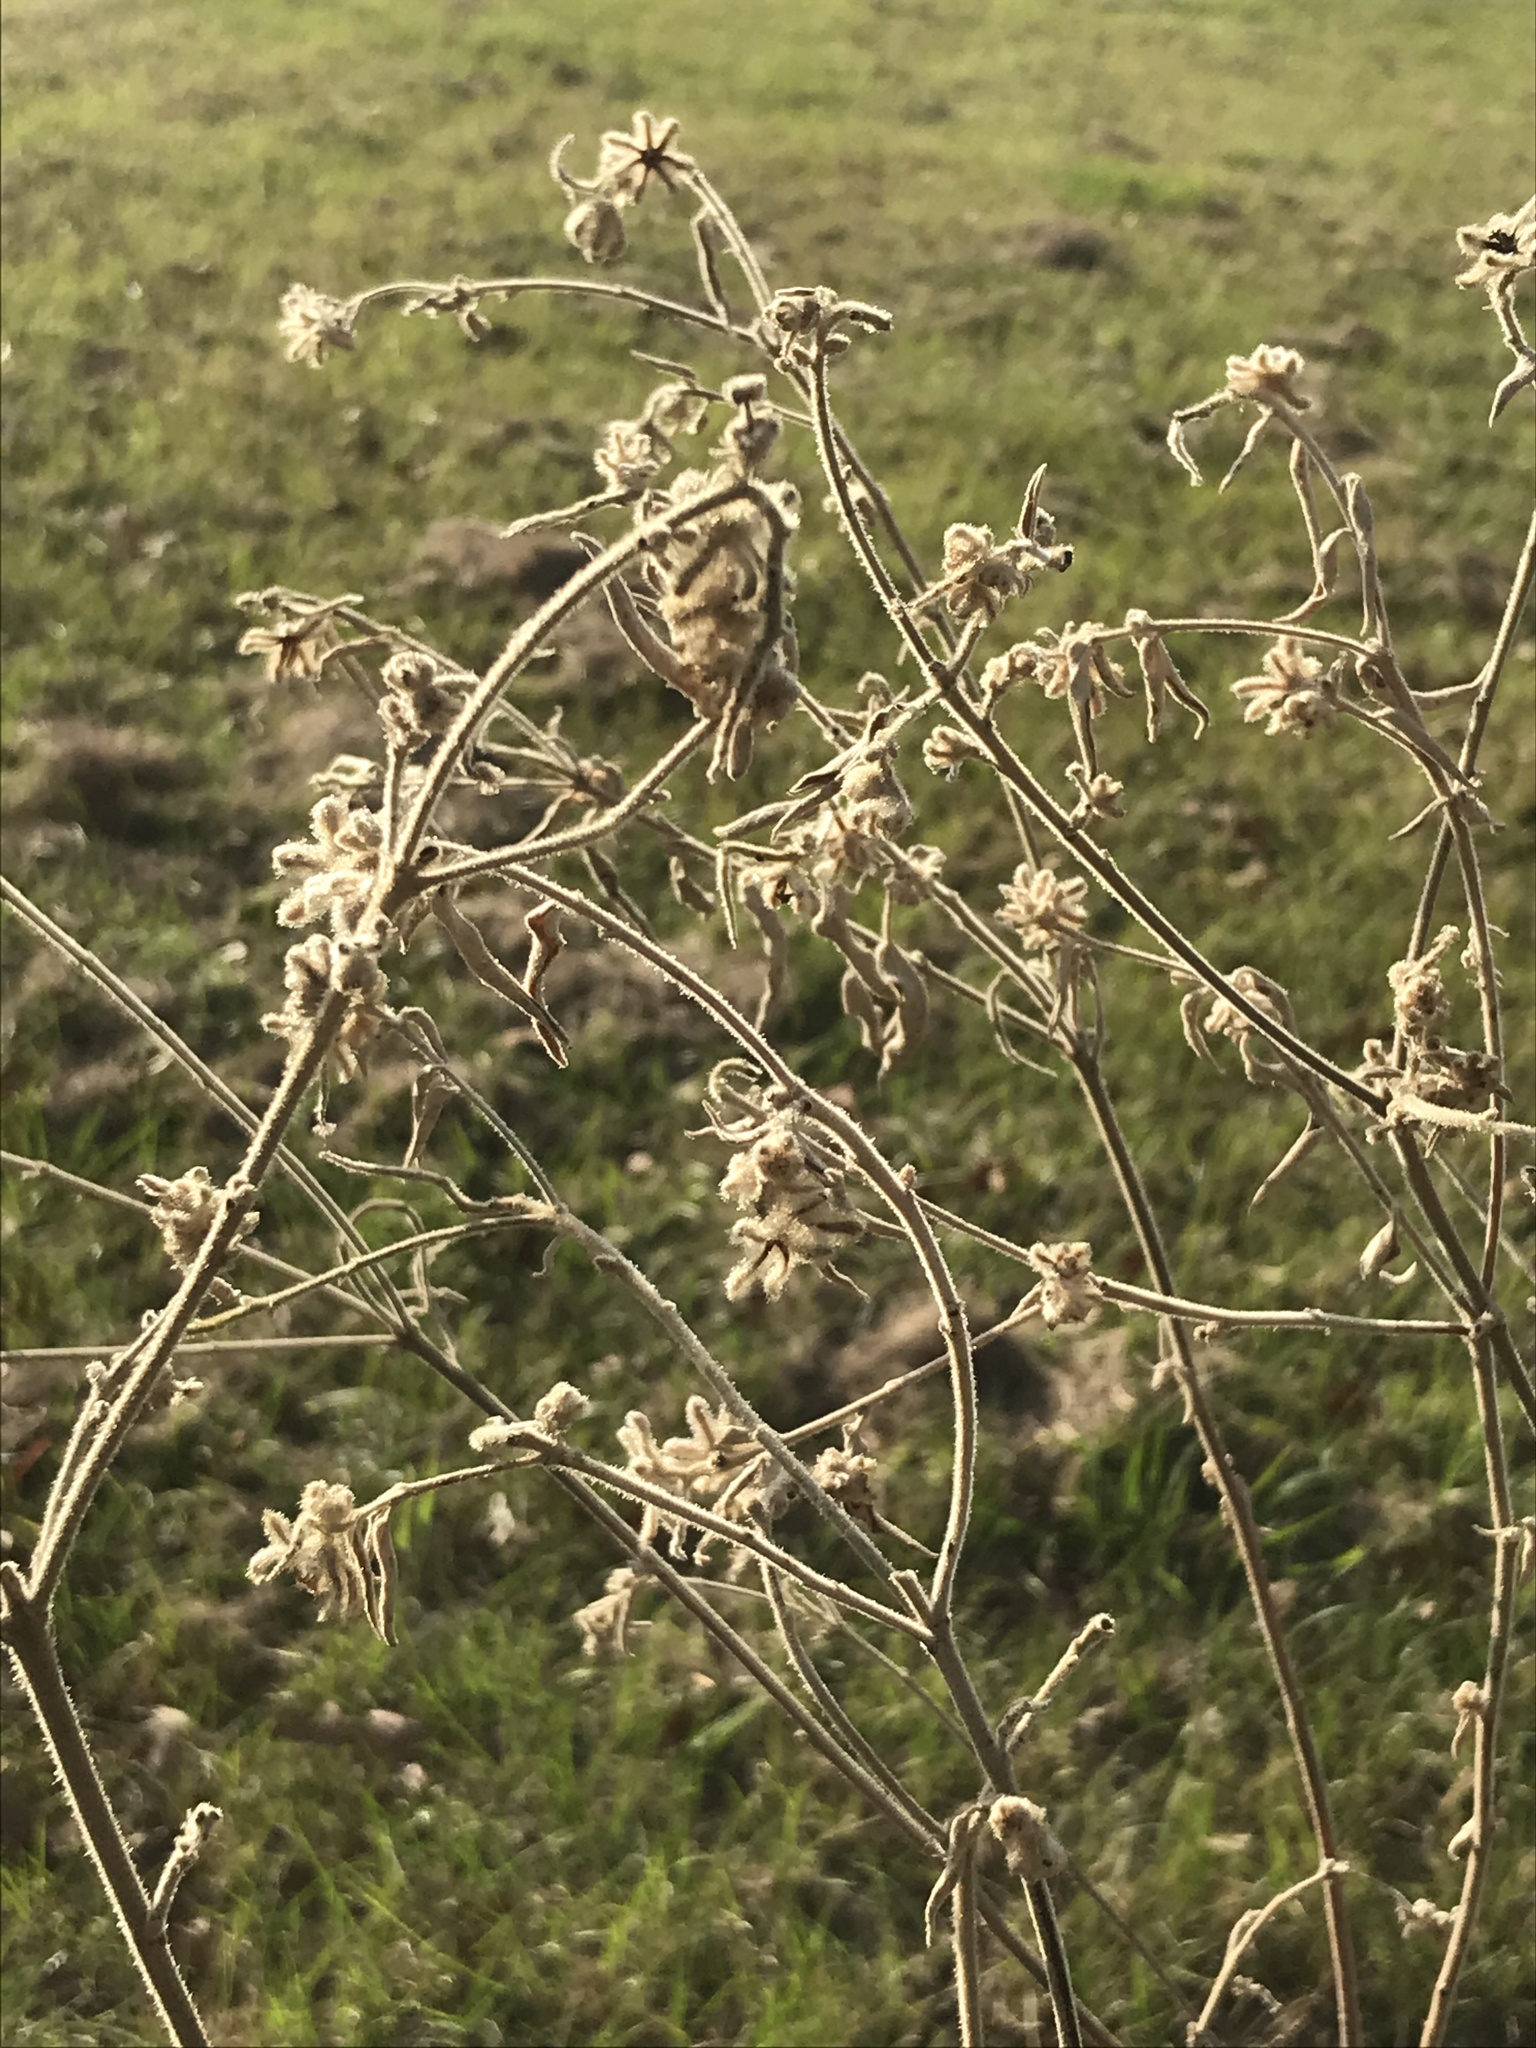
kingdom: Plantae
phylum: Tracheophyta
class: Magnoliopsida
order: Malpighiales
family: Euphorbiaceae
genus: Croton
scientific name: Croton lindheimeri
